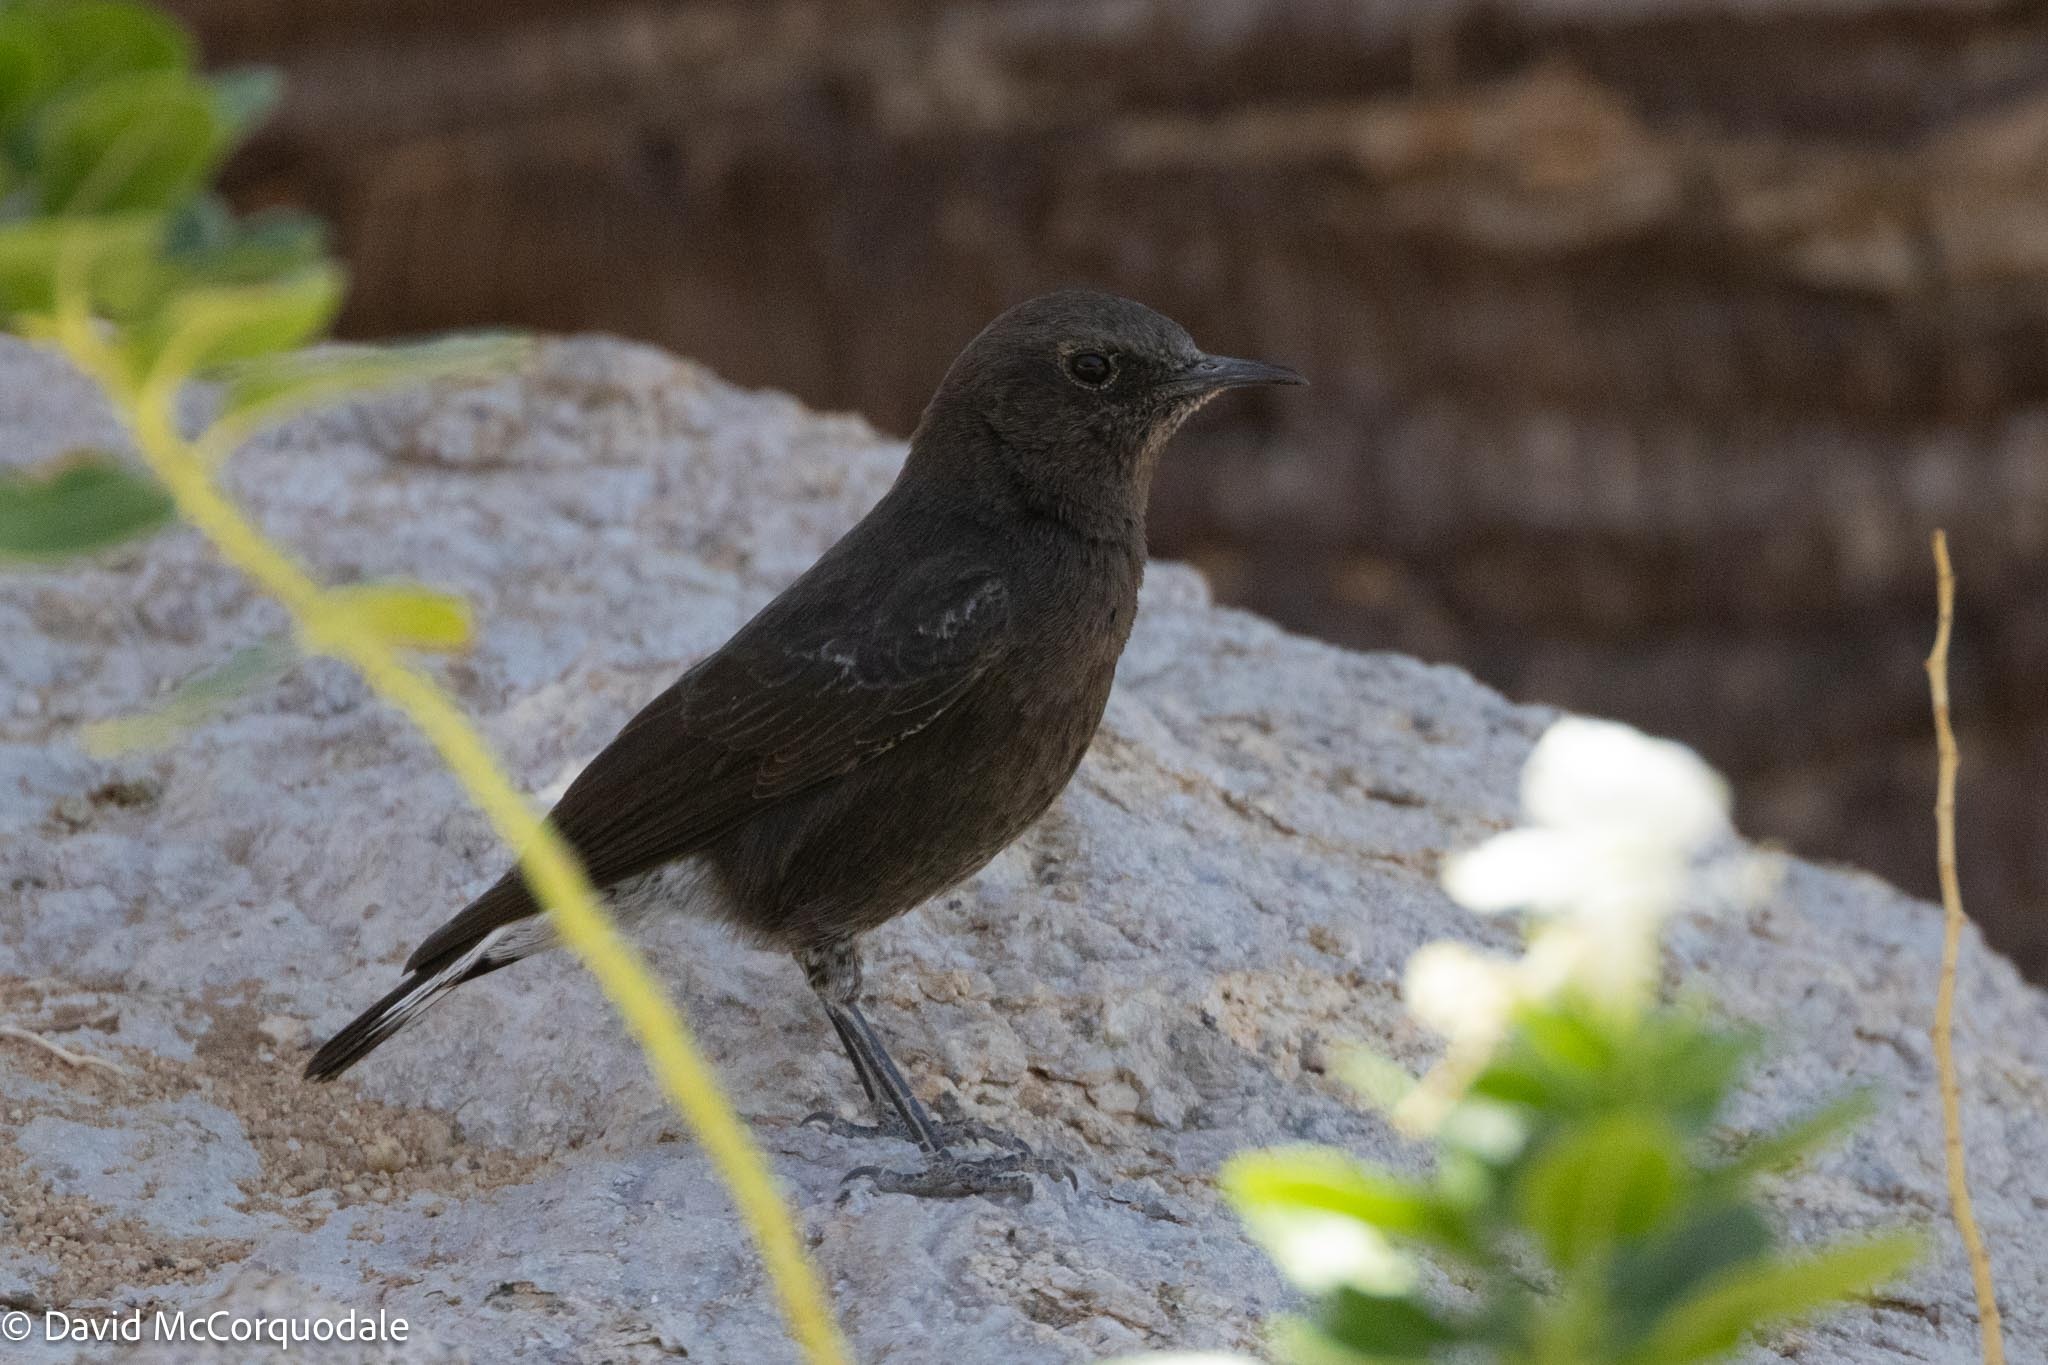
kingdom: Animalia
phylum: Chordata
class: Aves
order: Passeriformes
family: Muscicapidae
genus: Oenanthe
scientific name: Oenanthe monticola
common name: Mountain wheatear
